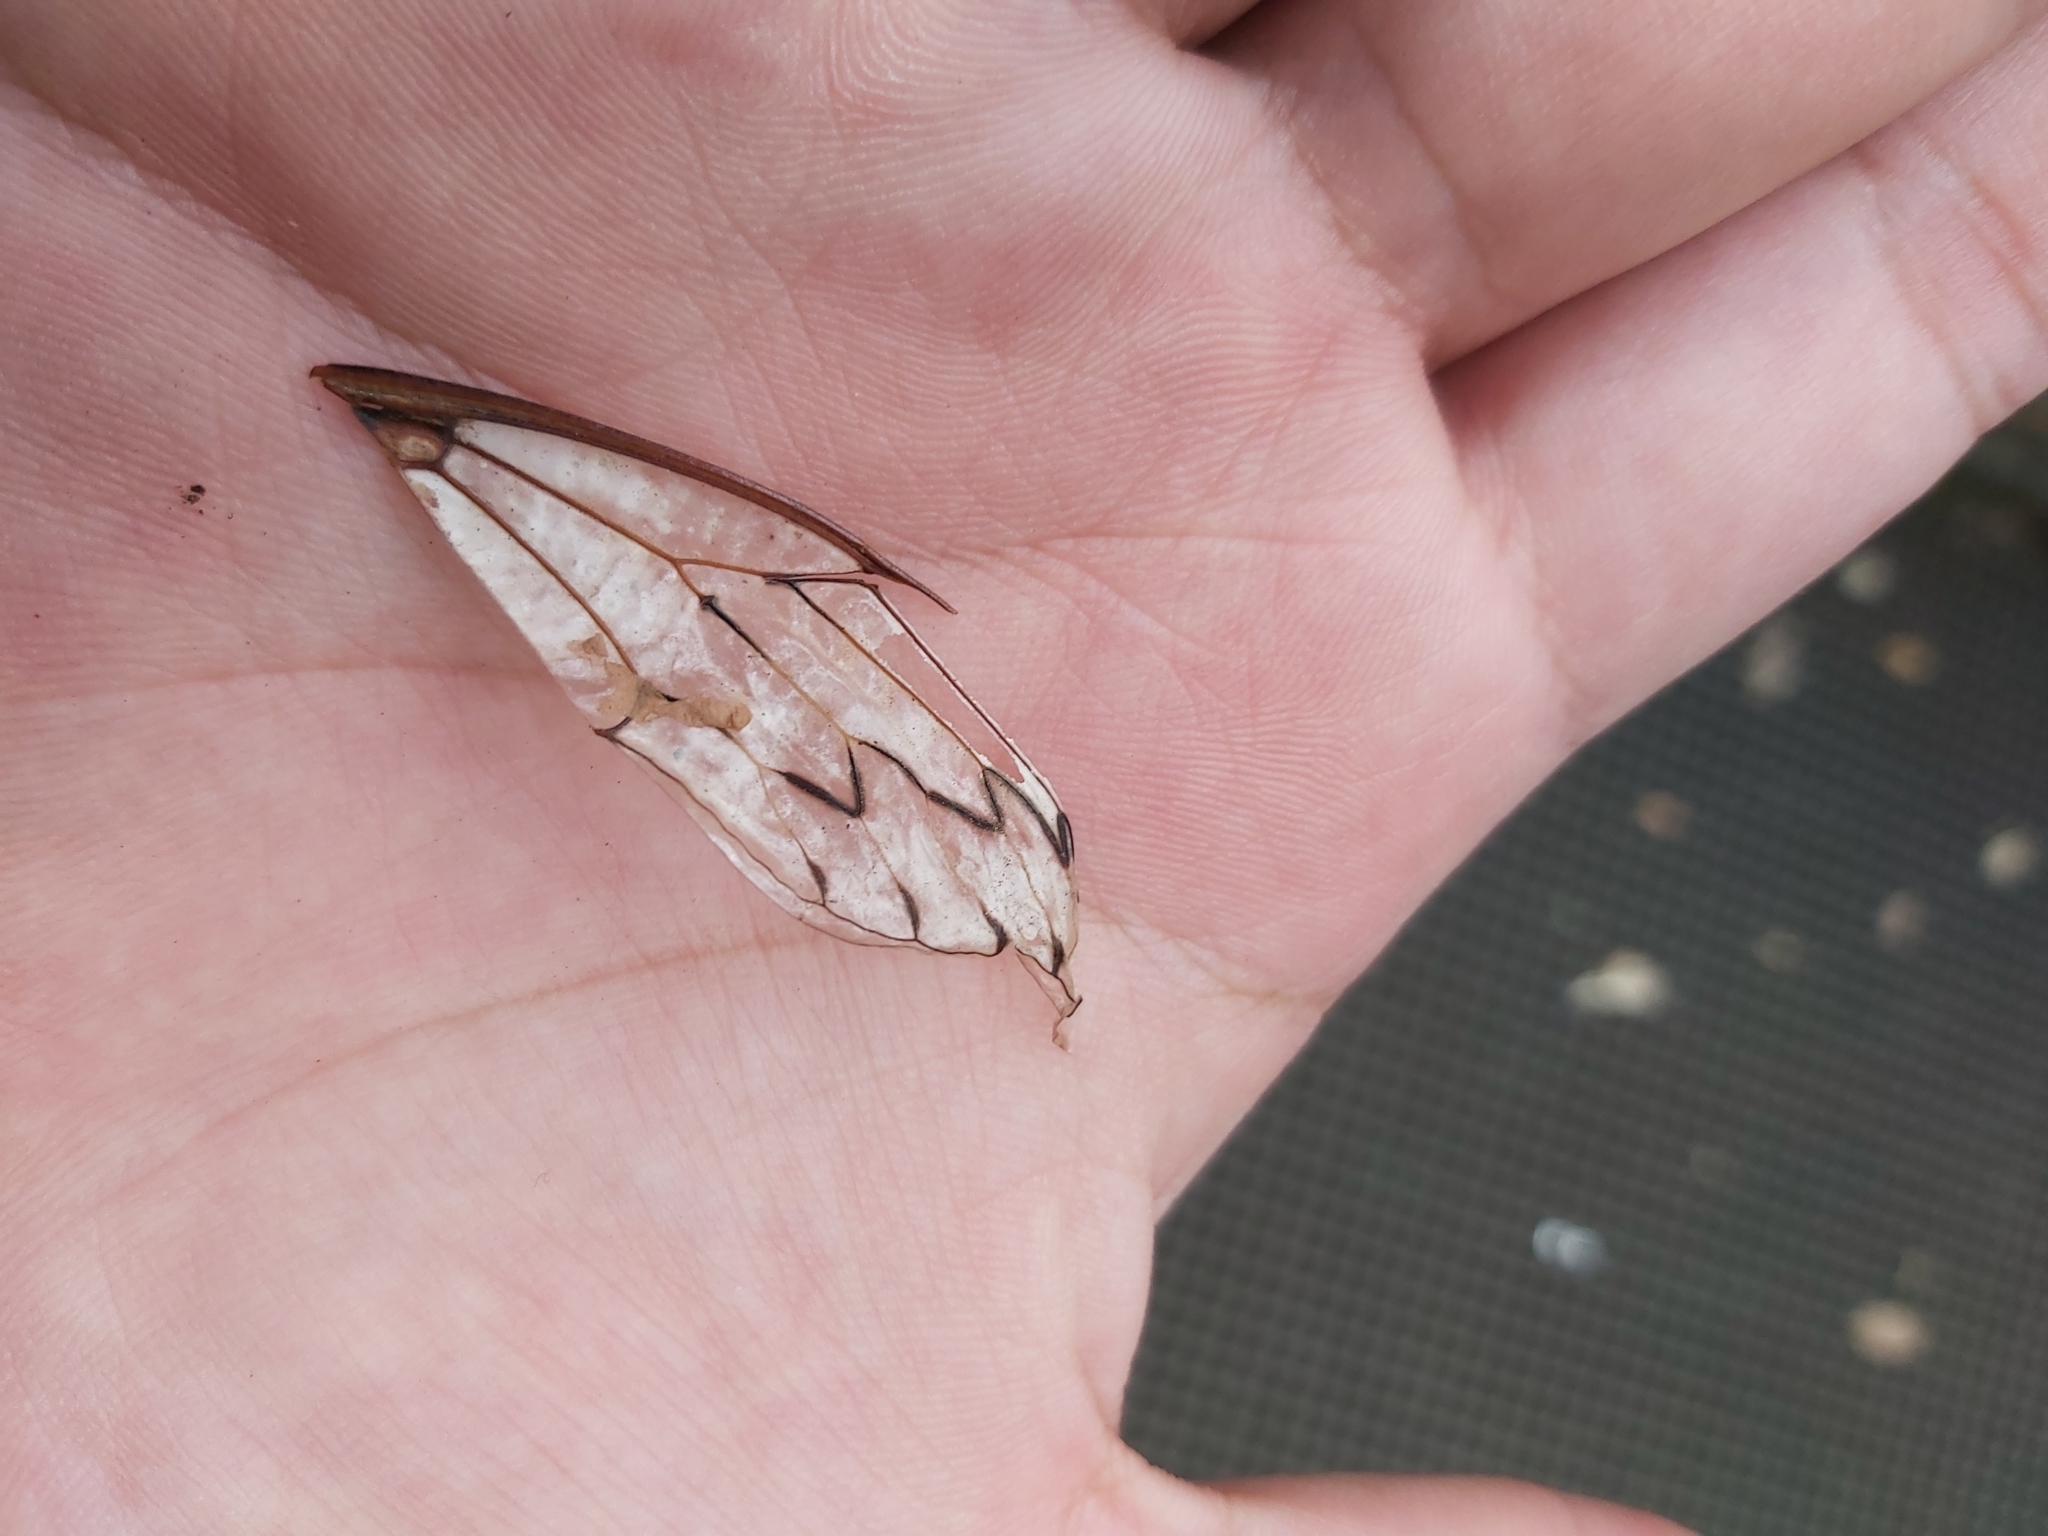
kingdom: Animalia
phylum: Arthropoda
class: Insecta
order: Hemiptera
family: Cicadidae
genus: Henicopsaltria
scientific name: Henicopsaltria eydouxii
